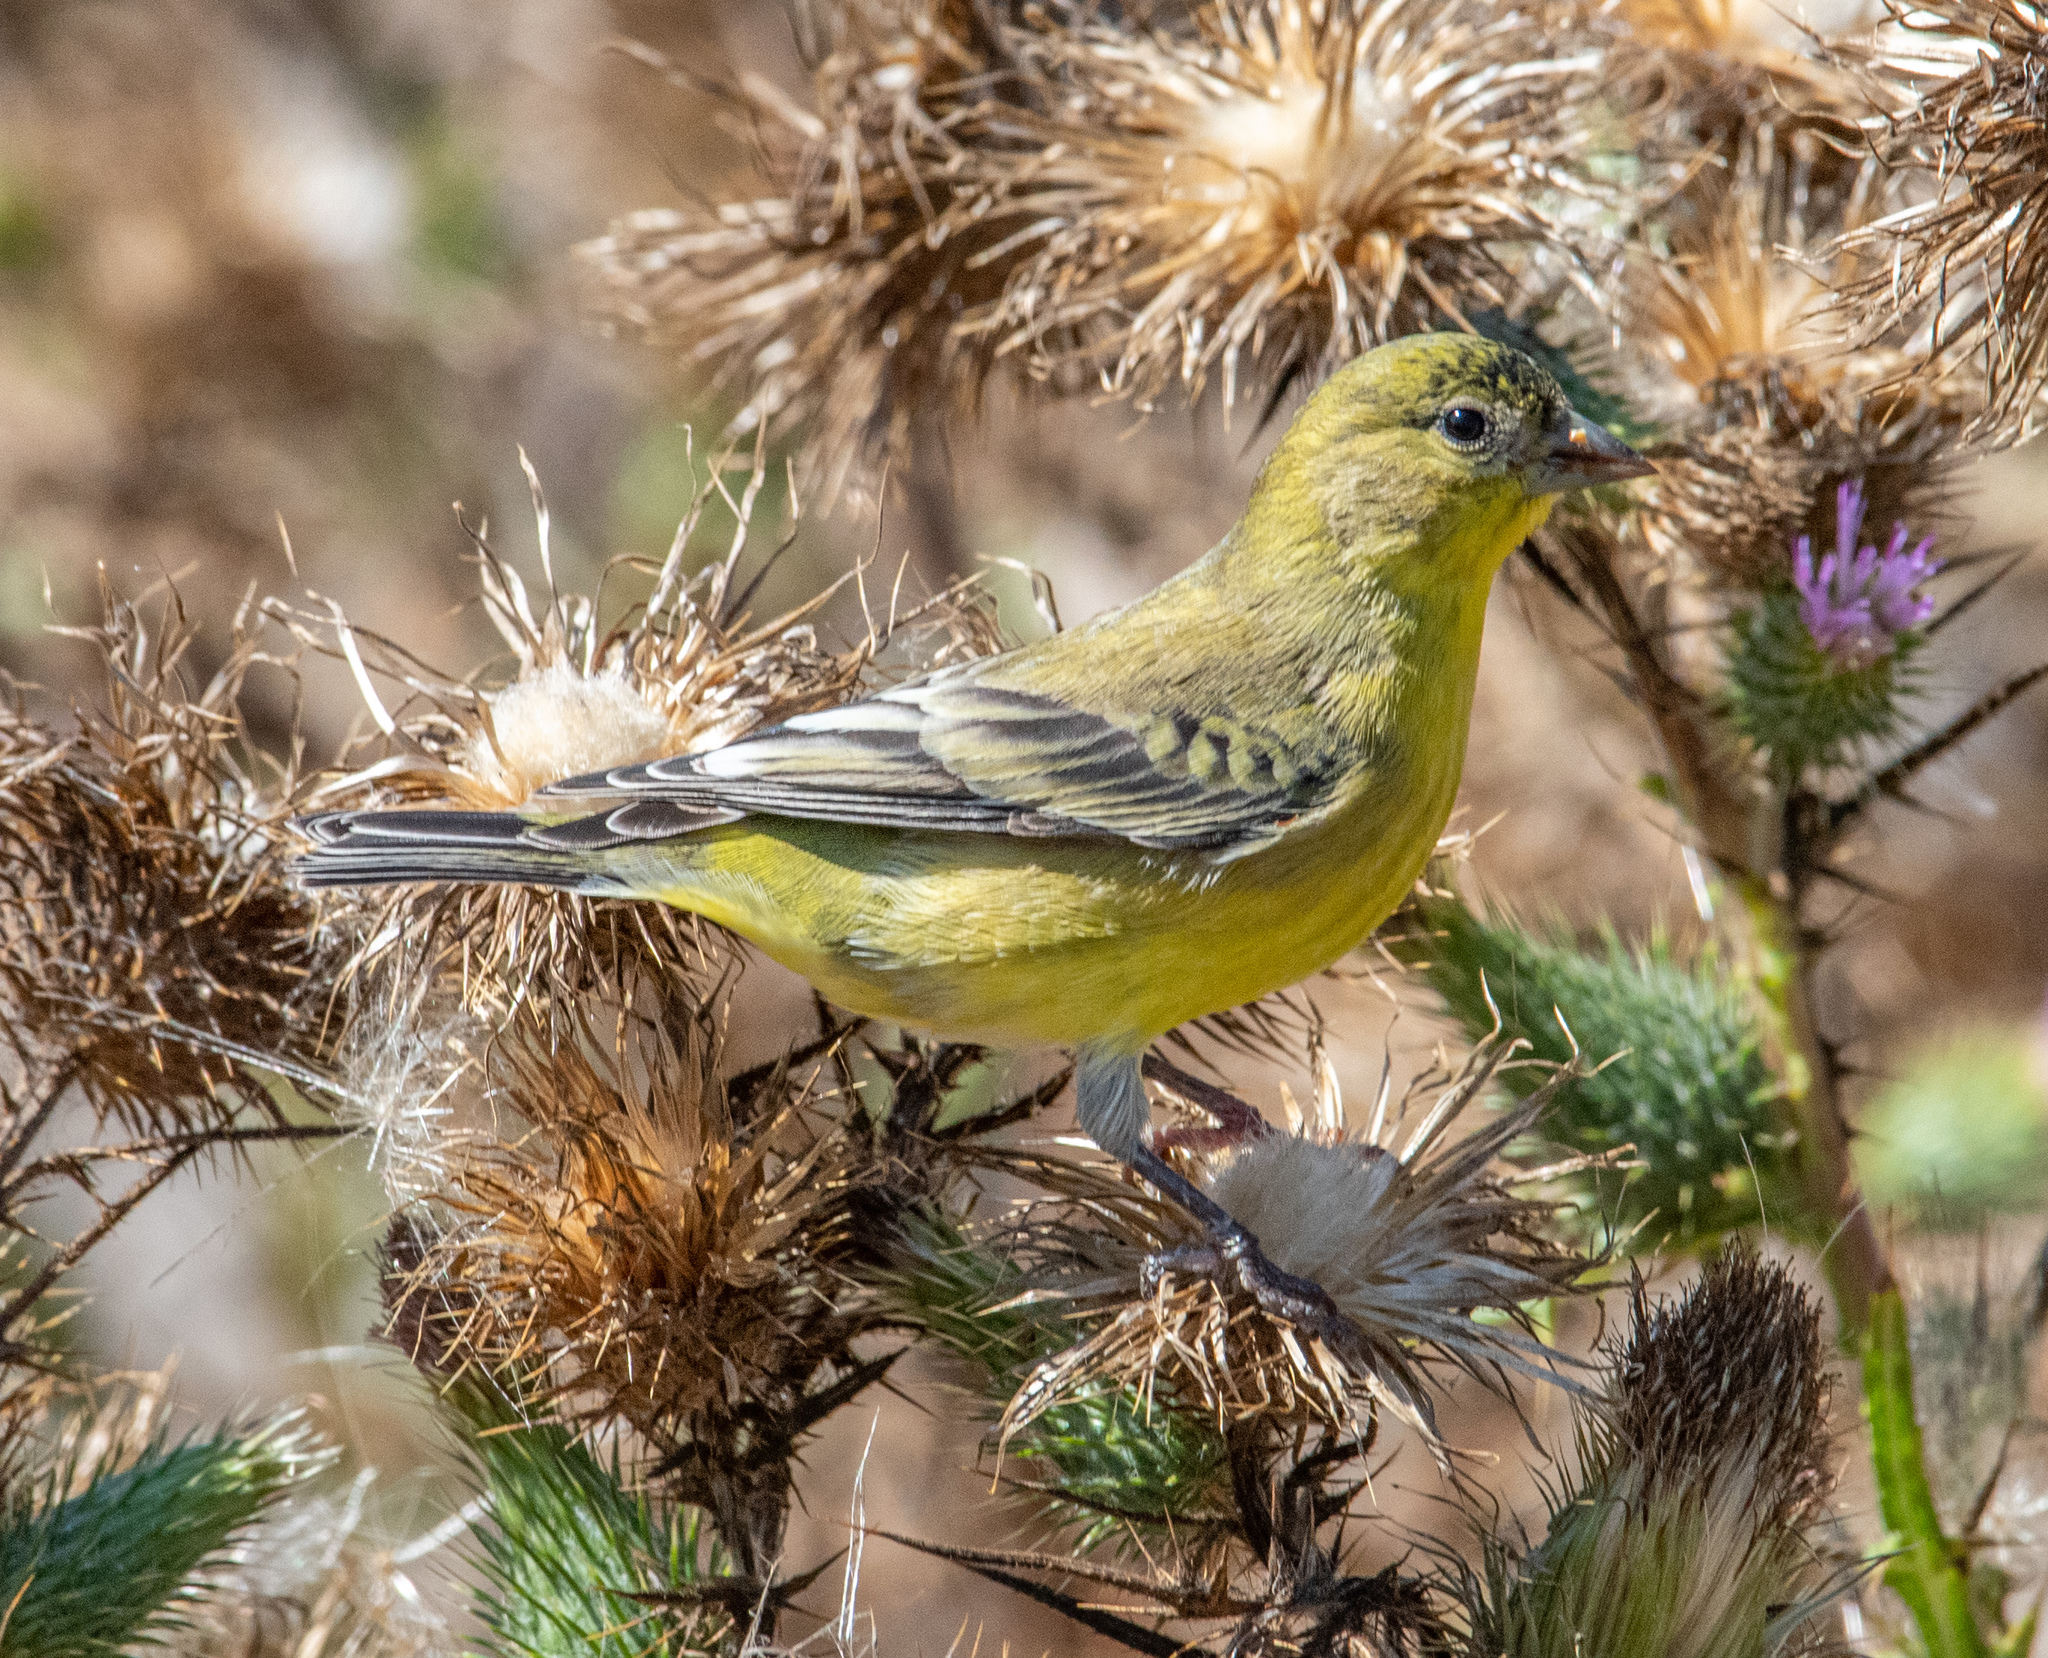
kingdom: Animalia
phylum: Chordata
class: Aves
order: Passeriformes
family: Fringillidae
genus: Spinus
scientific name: Spinus psaltria
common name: Lesser goldfinch
